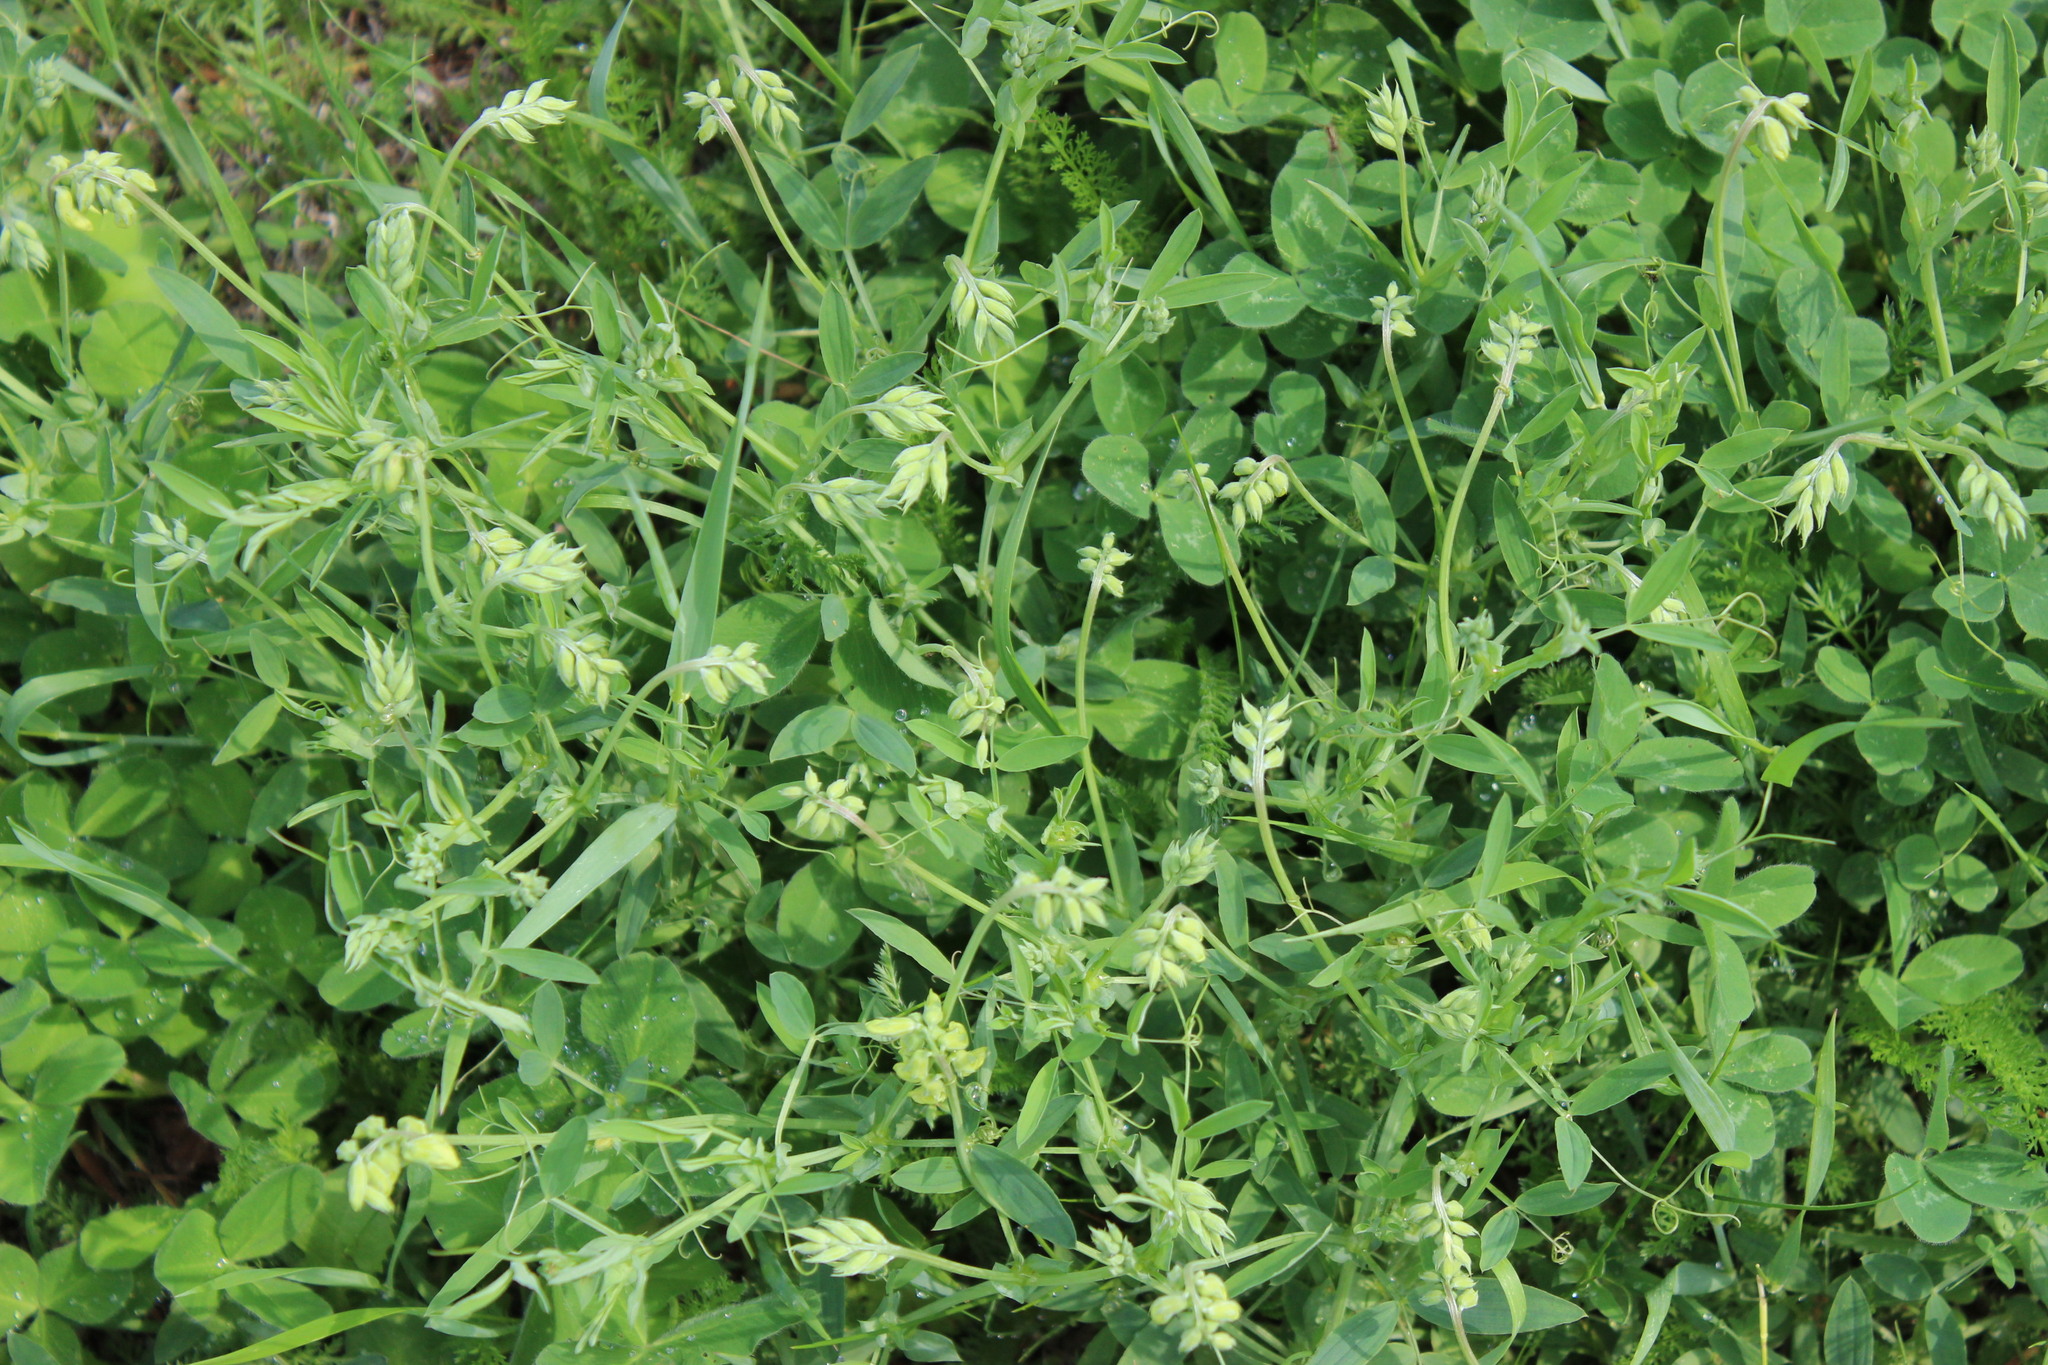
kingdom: Plantae
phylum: Tracheophyta
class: Magnoliopsida
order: Fabales
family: Fabaceae
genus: Lathyrus
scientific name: Lathyrus pratensis
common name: Meadow vetchling
